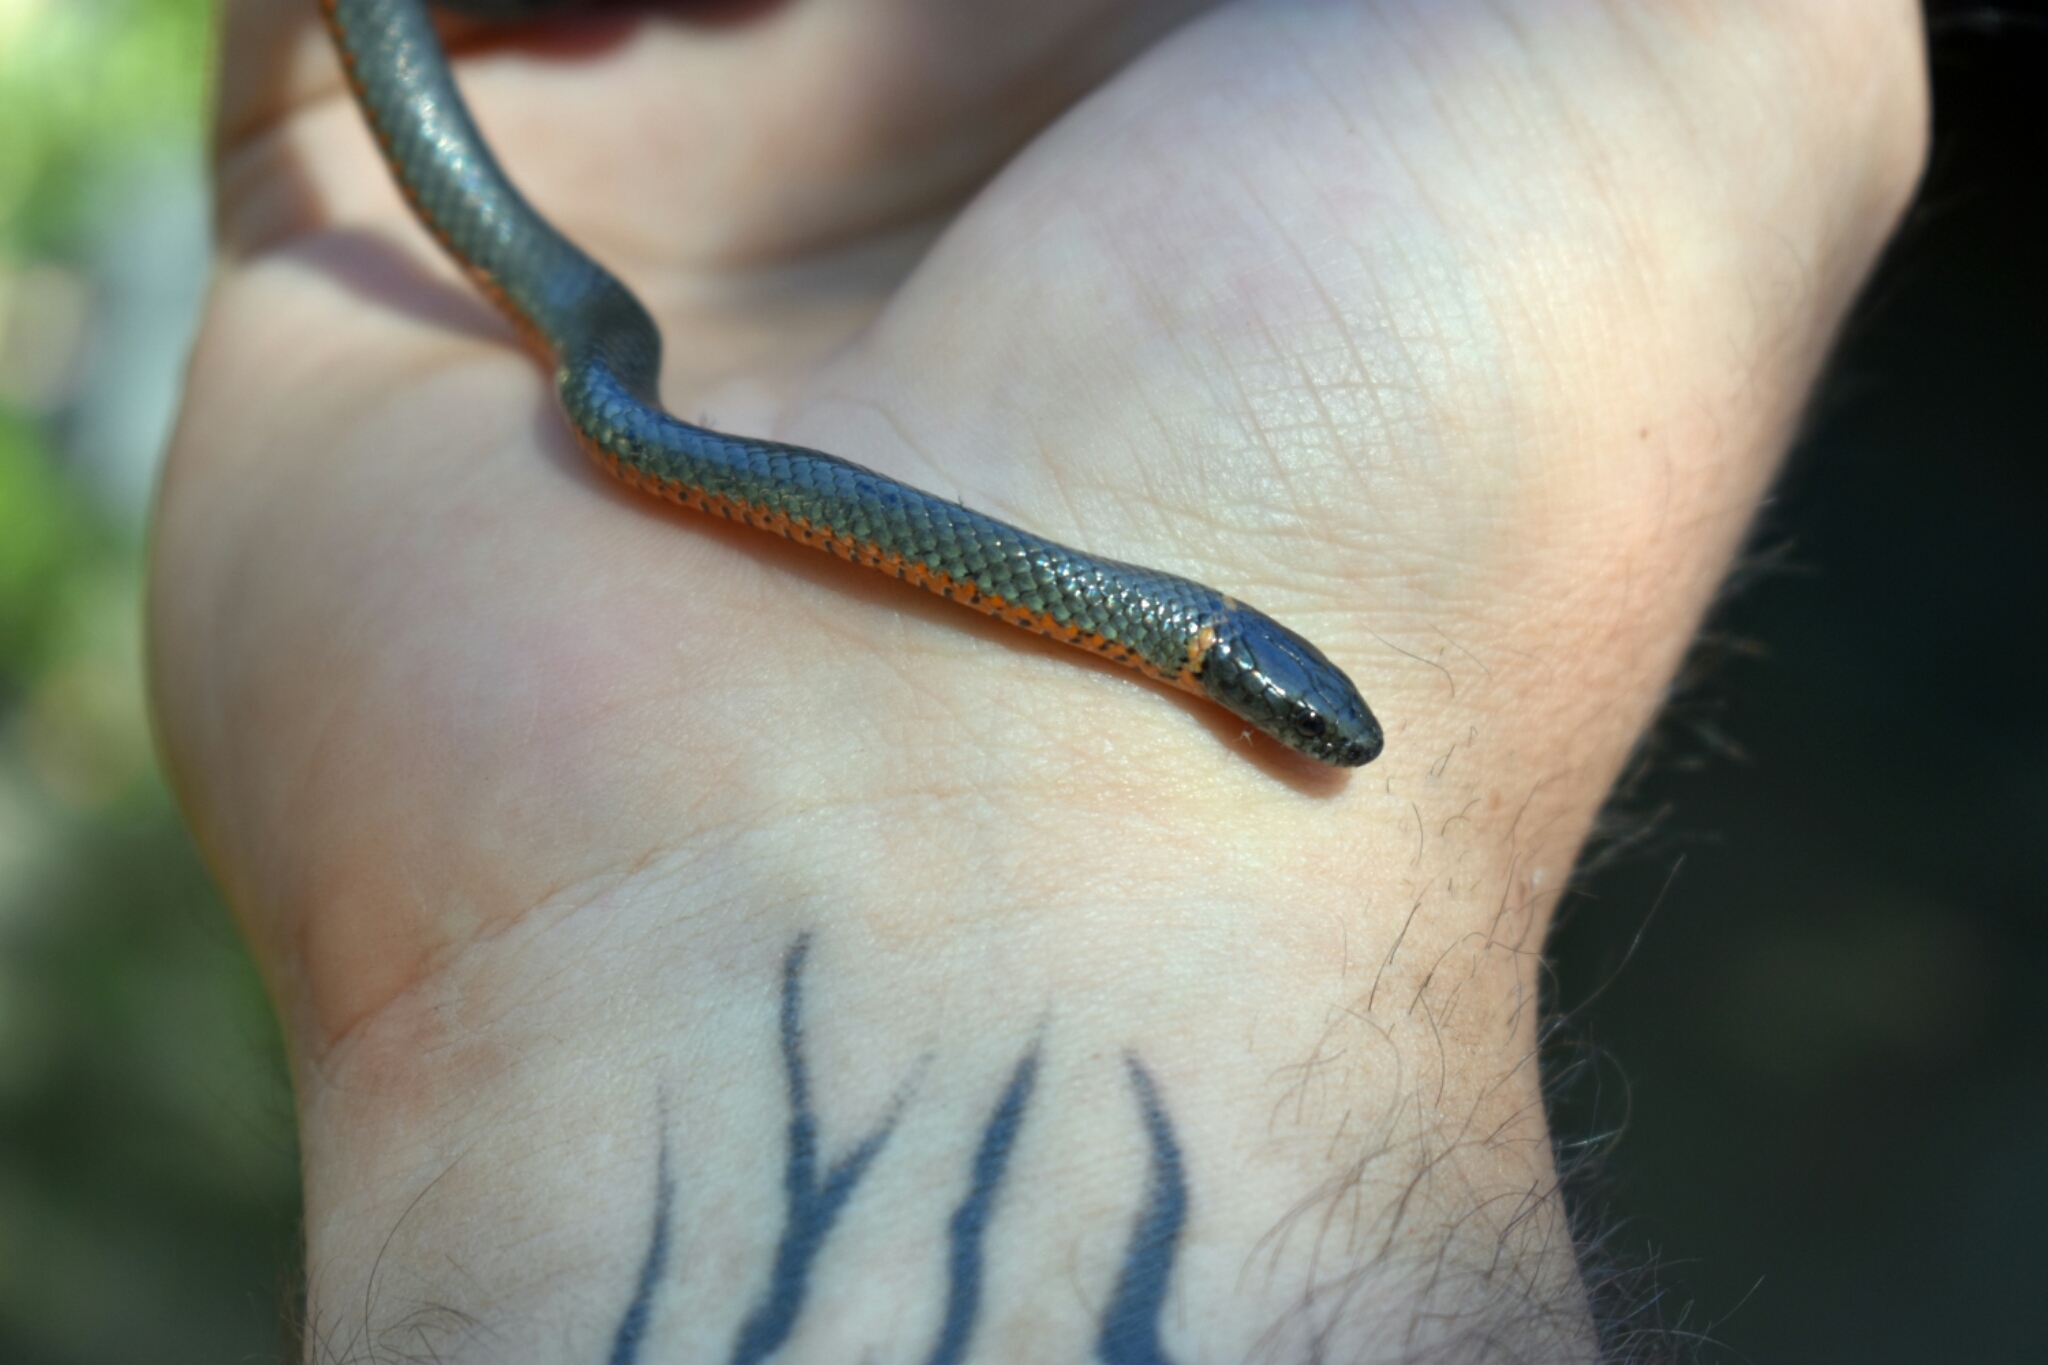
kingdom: Animalia
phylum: Chordata
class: Squamata
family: Colubridae
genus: Diadophis
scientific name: Diadophis punctatus
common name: Ringneck snake
